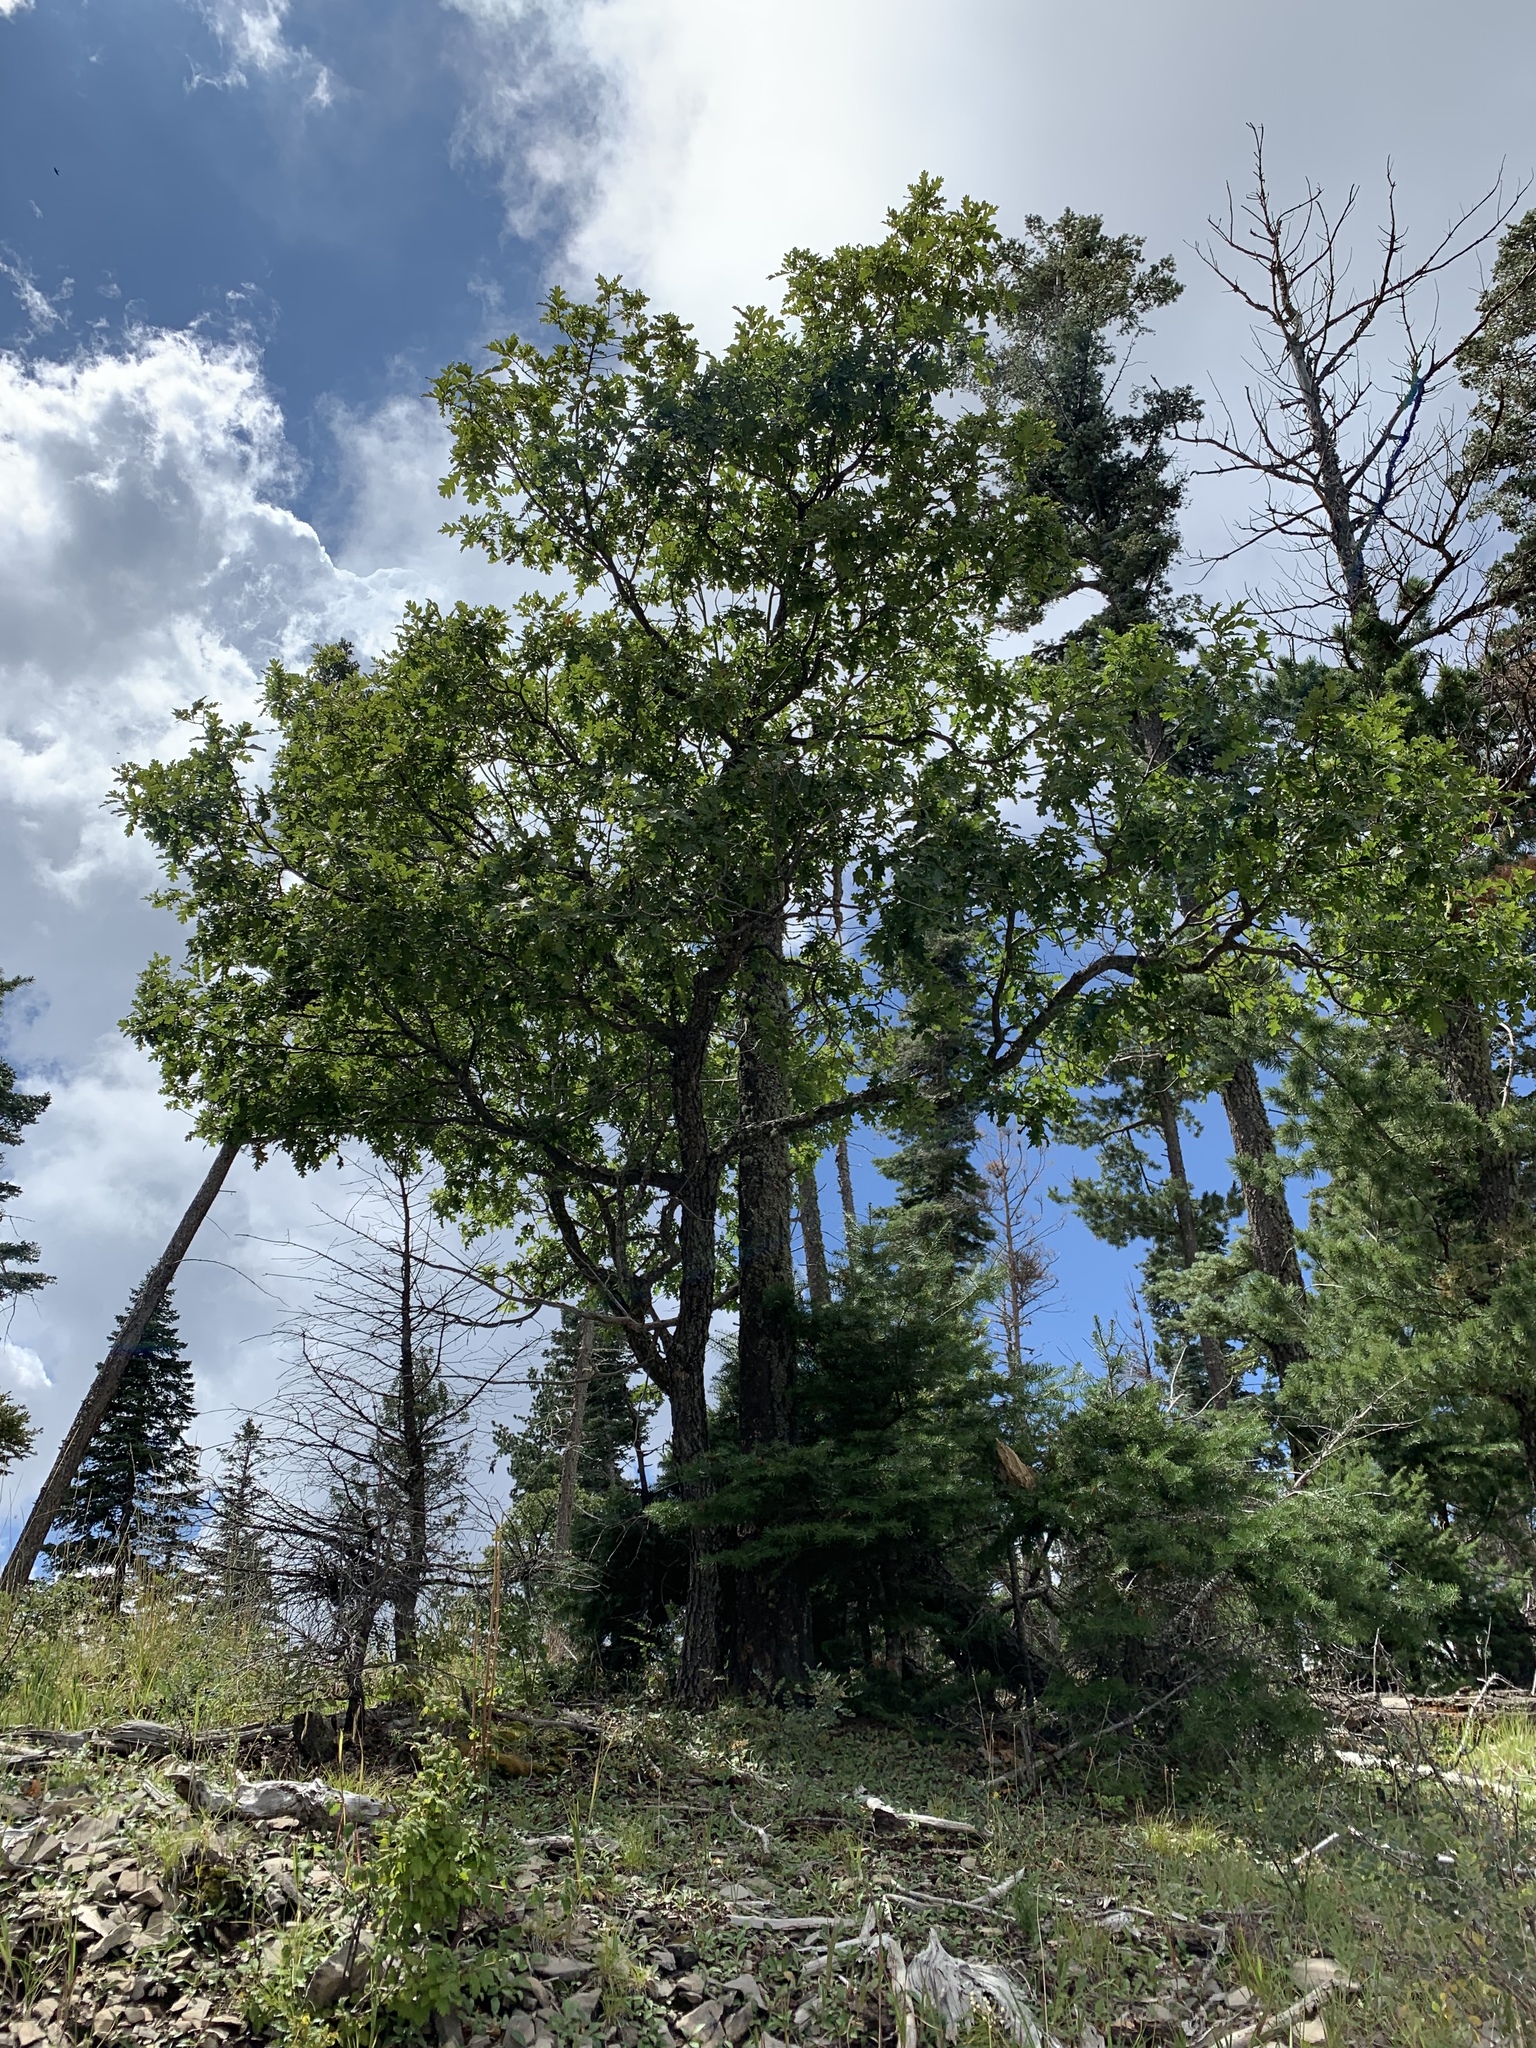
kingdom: Plantae
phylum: Tracheophyta
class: Magnoliopsida
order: Fagales
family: Fagaceae
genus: Quercus
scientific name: Quercus gambelii
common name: Gambel oak
